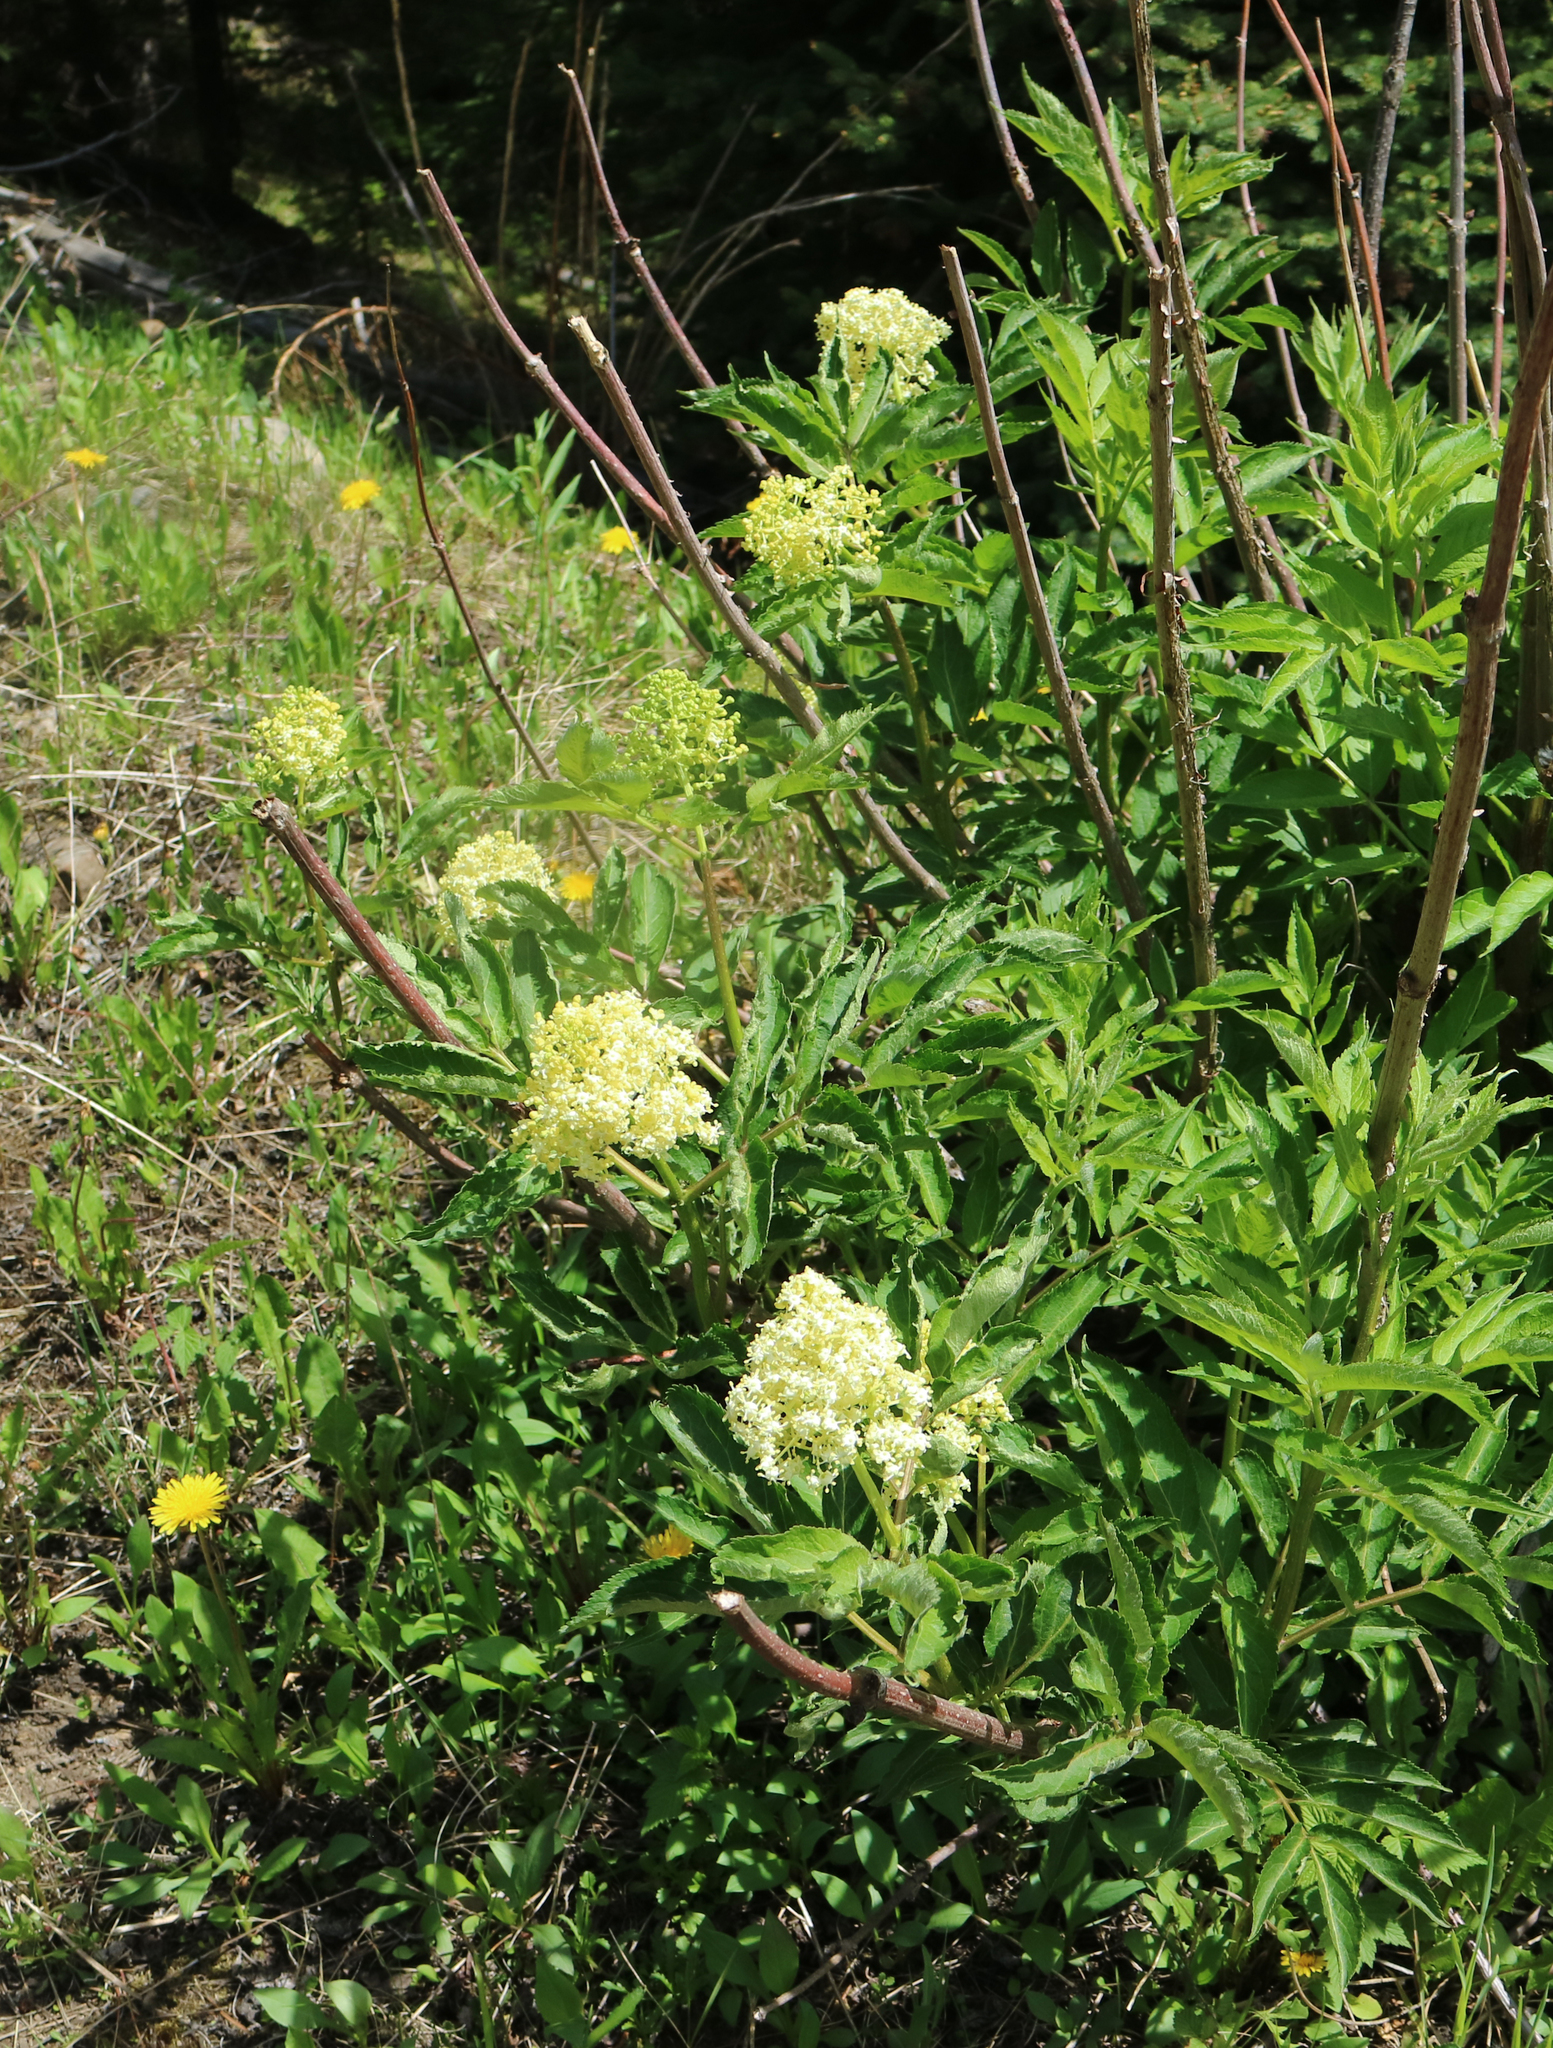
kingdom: Plantae
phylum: Tracheophyta
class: Magnoliopsida
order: Dipsacales
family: Viburnaceae
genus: Sambucus
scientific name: Sambucus racemosa
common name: Red-berried elder
